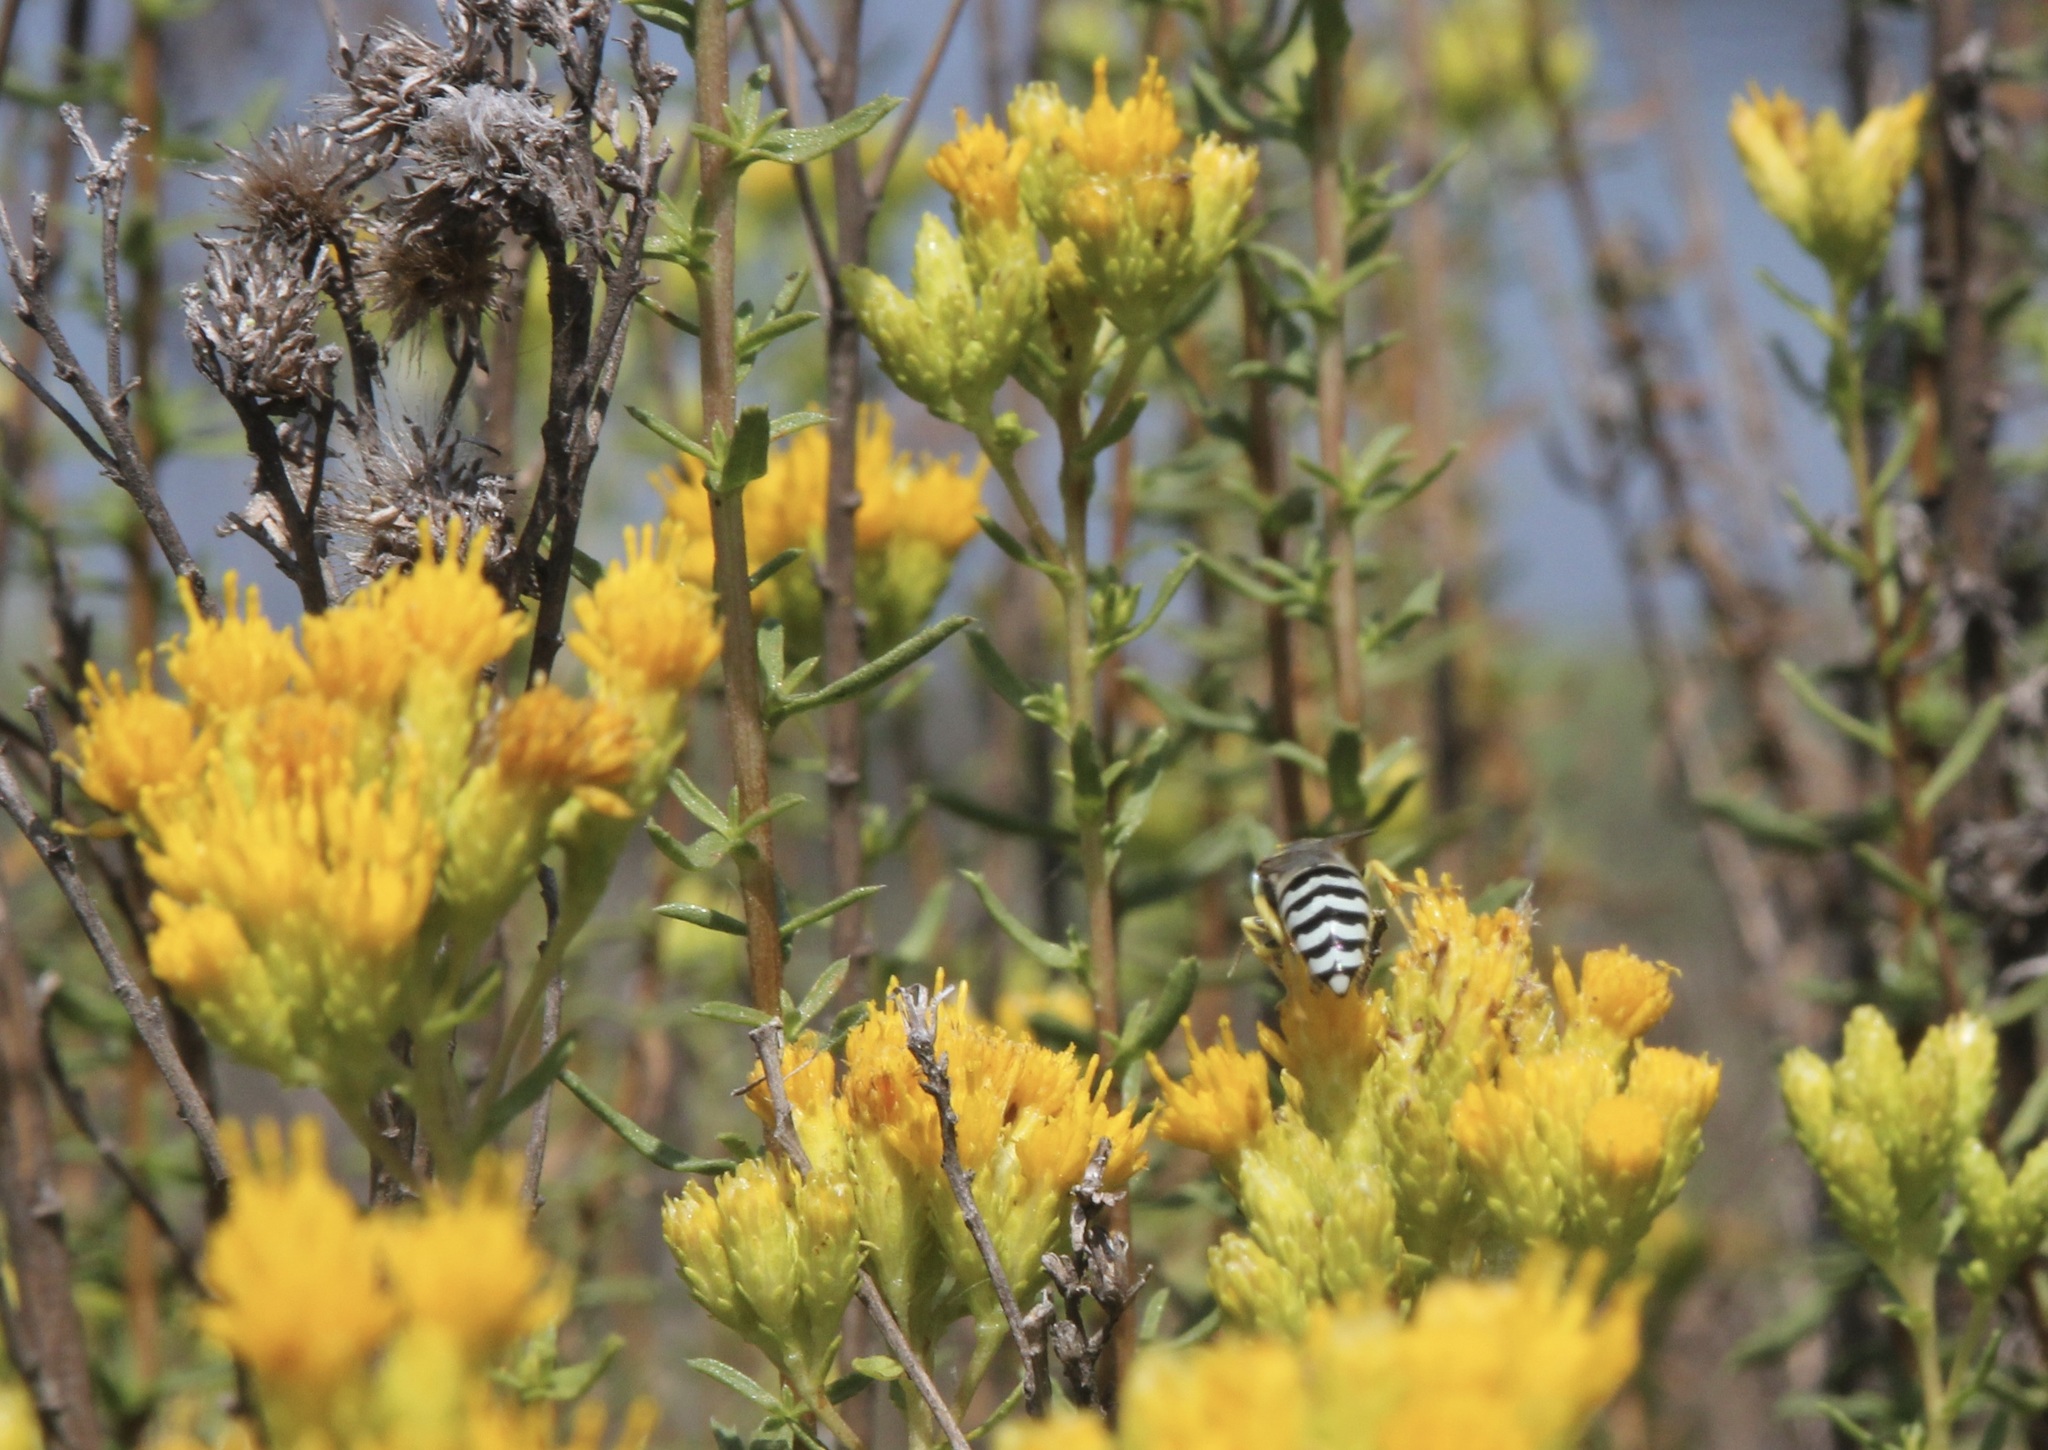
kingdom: Plantae
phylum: Tracheophyta
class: Magnoliopsida
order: Asterales
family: Asteraceae
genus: Isocoma
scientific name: Isocoma menziesii
